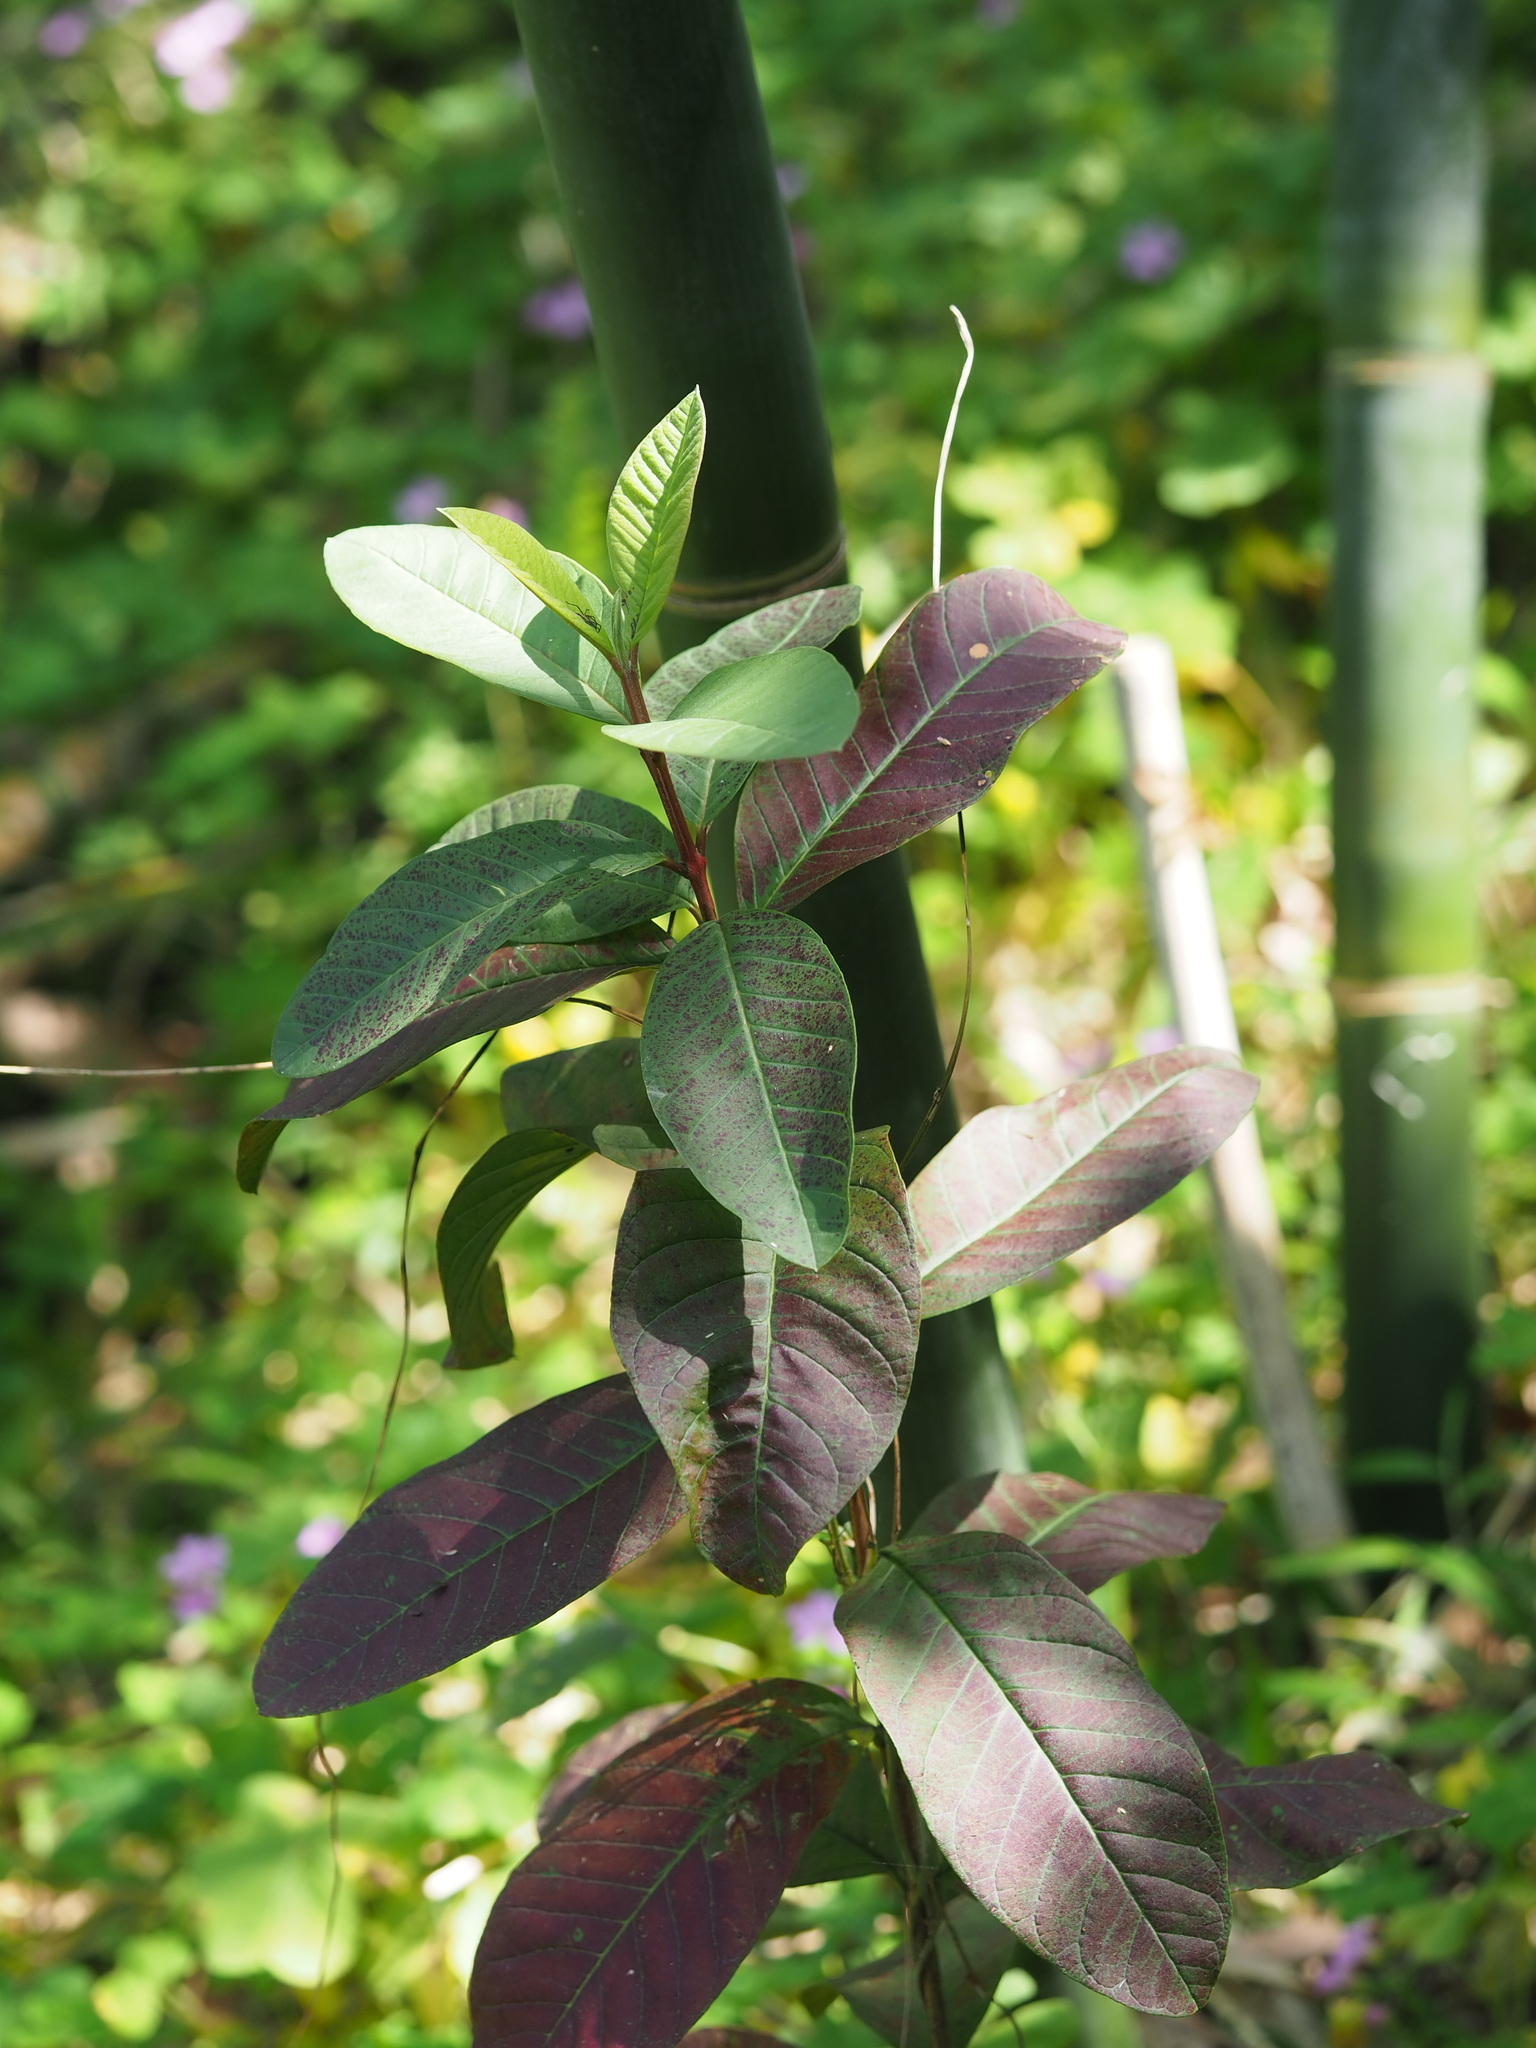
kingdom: Plantae
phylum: Tracheophyta
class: Magnoliopsida
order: Myrtales
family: Myrtaceae
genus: Psidium
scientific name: Psidium guajava
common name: Guava
